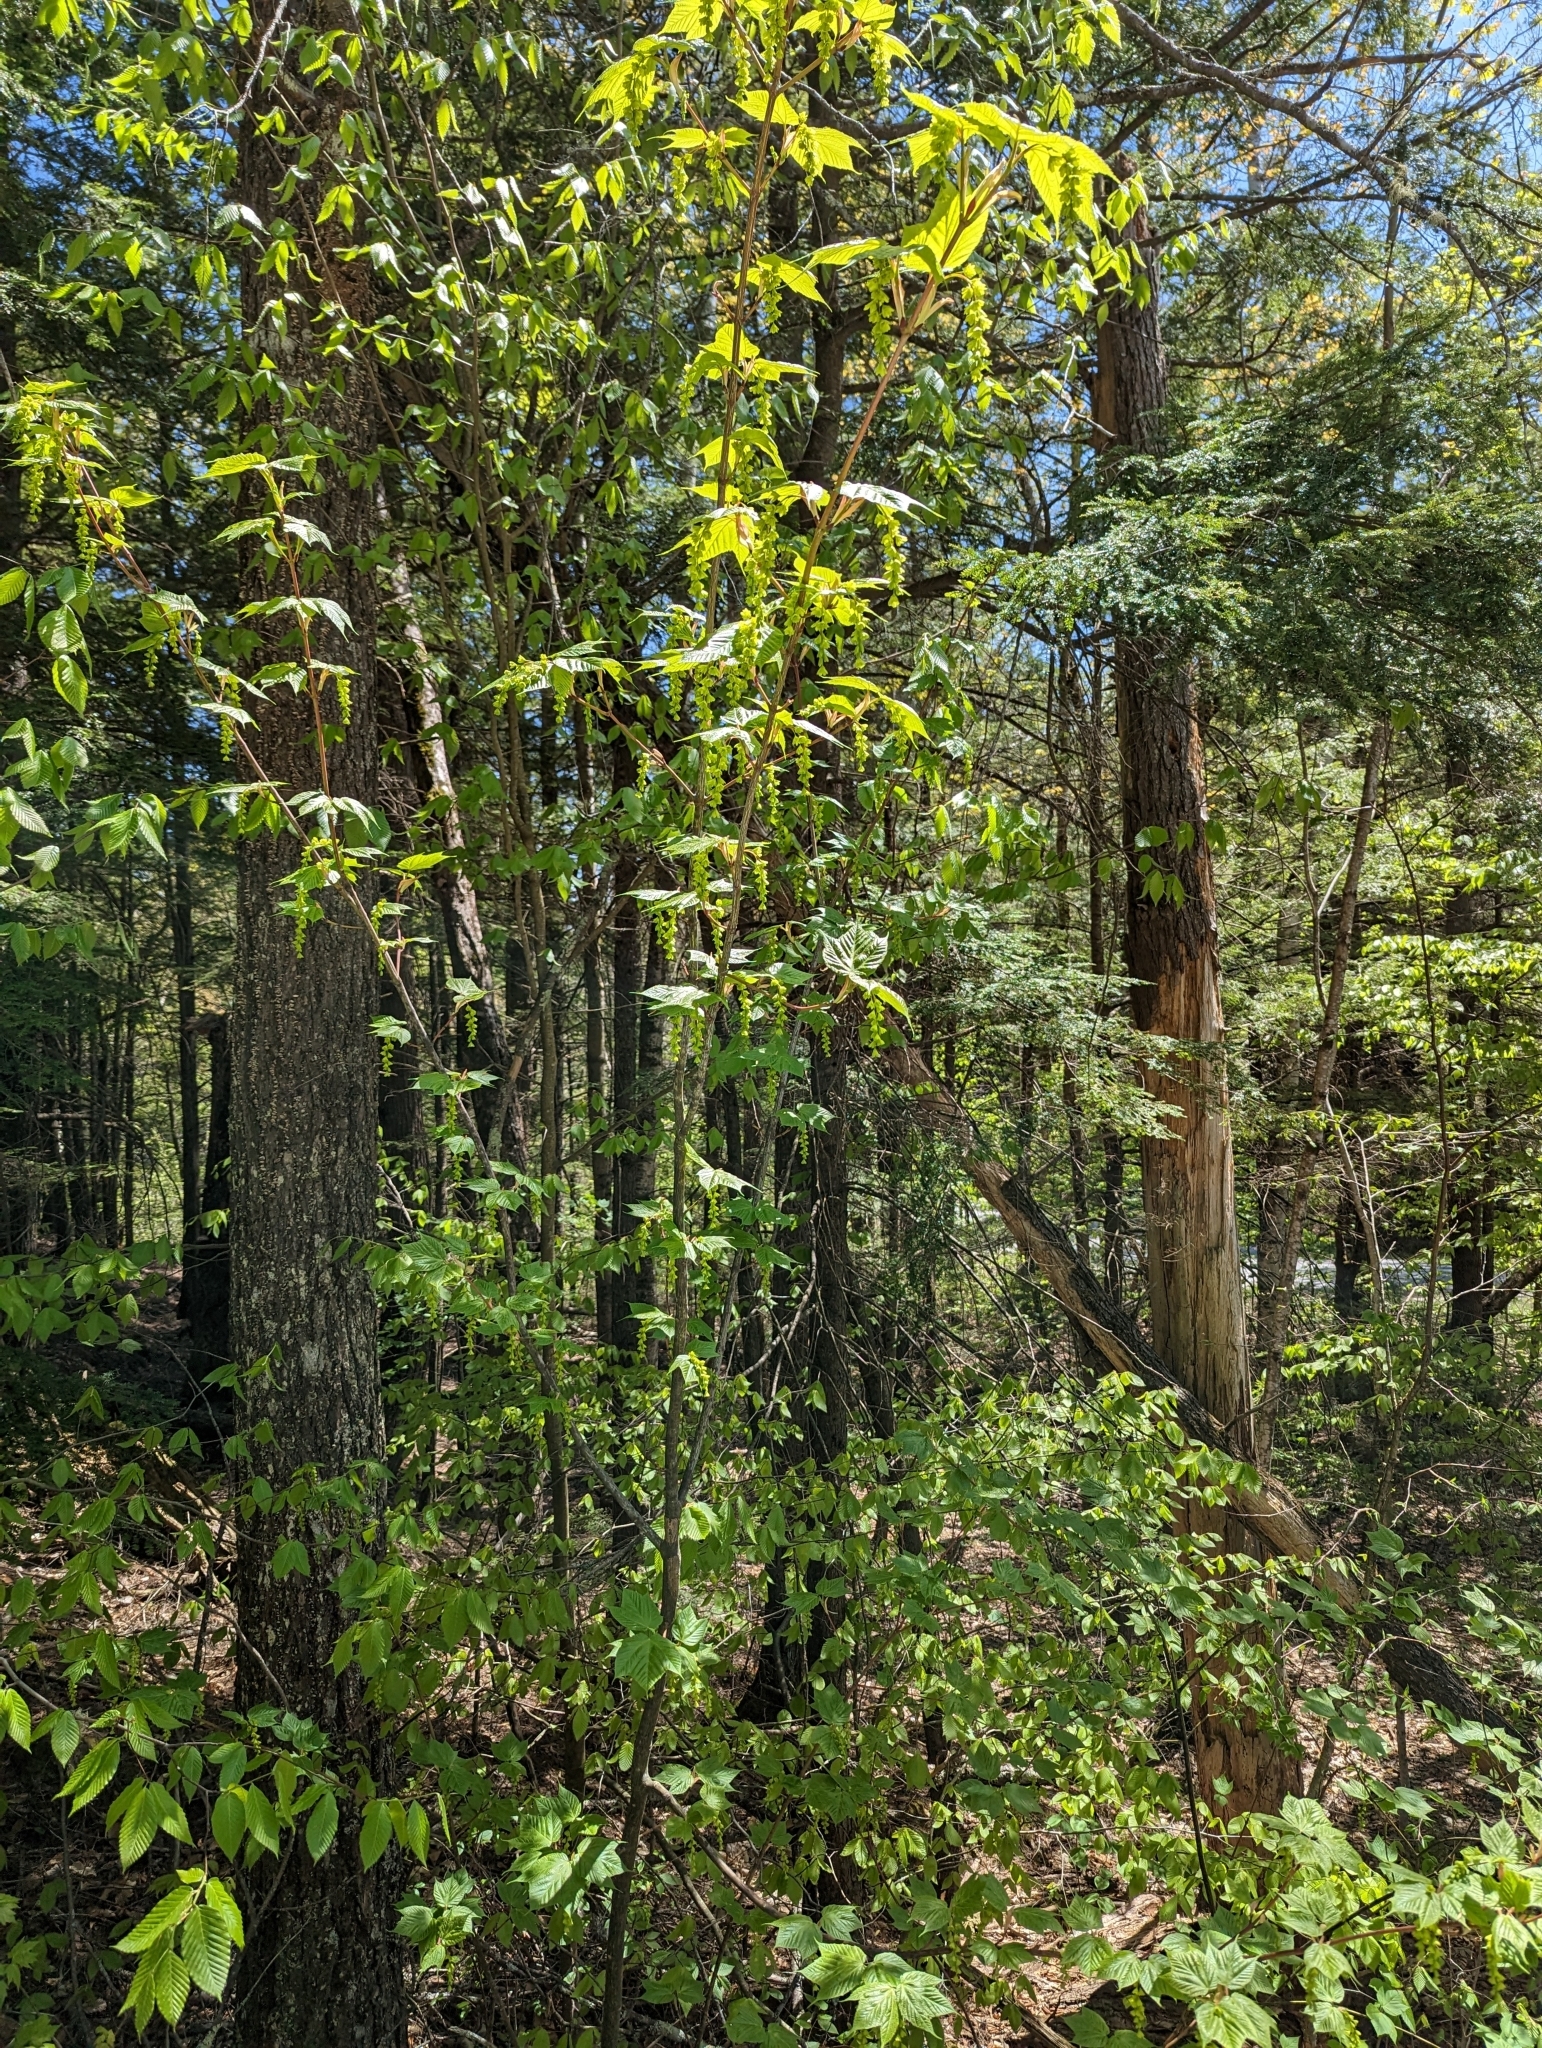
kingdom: Plantae
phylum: Tracheophyta
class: Magnoliopsida
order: Sapindales
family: Sapindaceae
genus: Acer
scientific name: Acer pensylvanicum
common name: Moosewood
